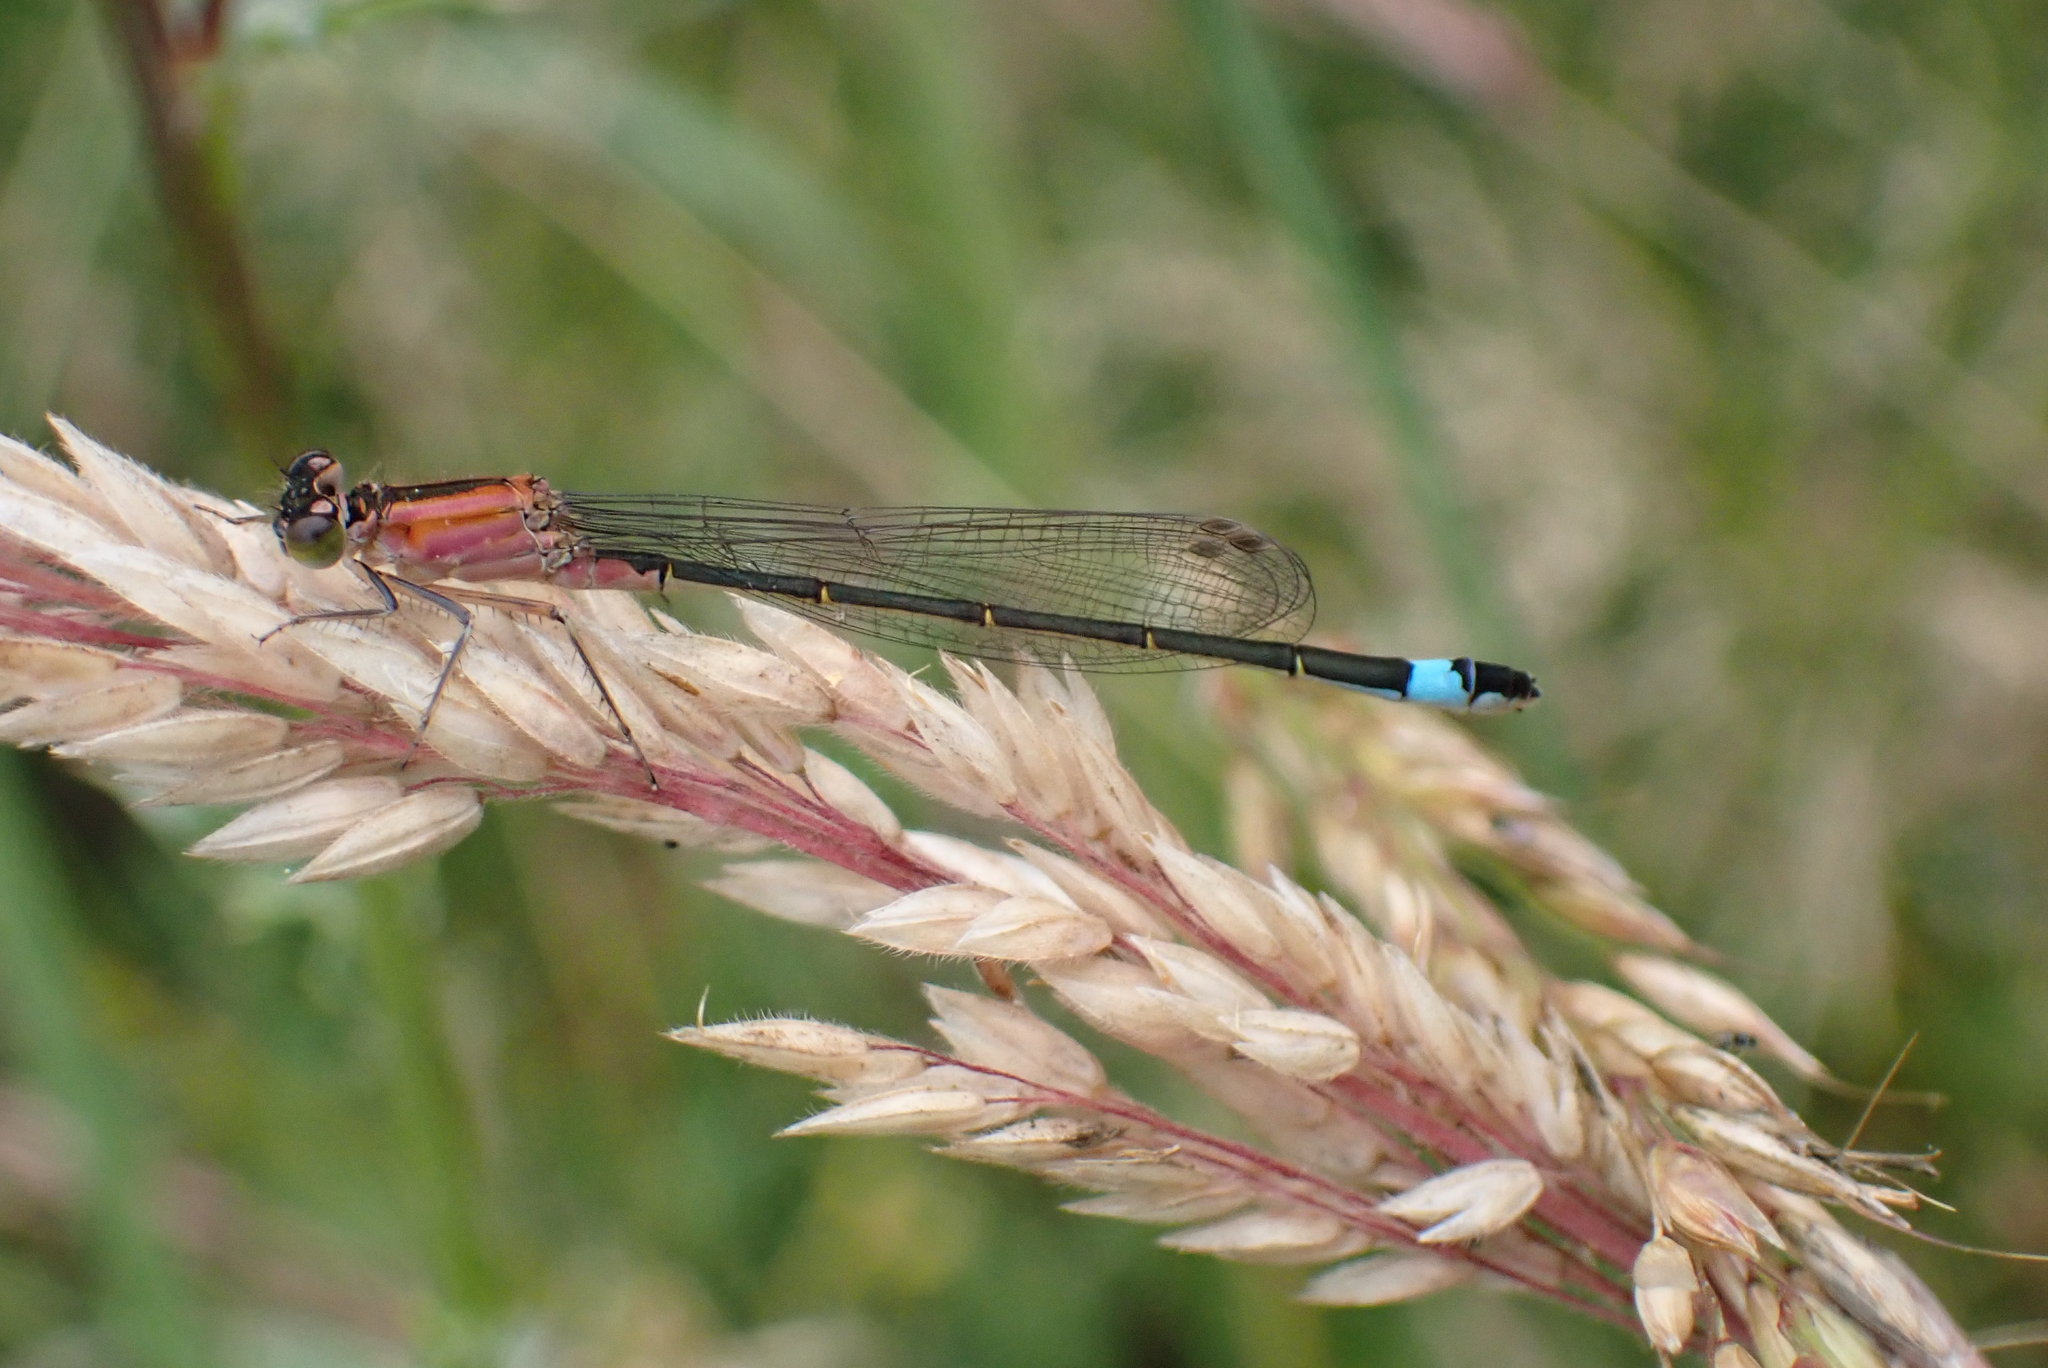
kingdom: Animalia
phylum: Arthropoda
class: Insecta
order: Odonata
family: Coenagrionidae
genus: Ischnura
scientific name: Ischnura elegans
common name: Blue-tailed damselfly
